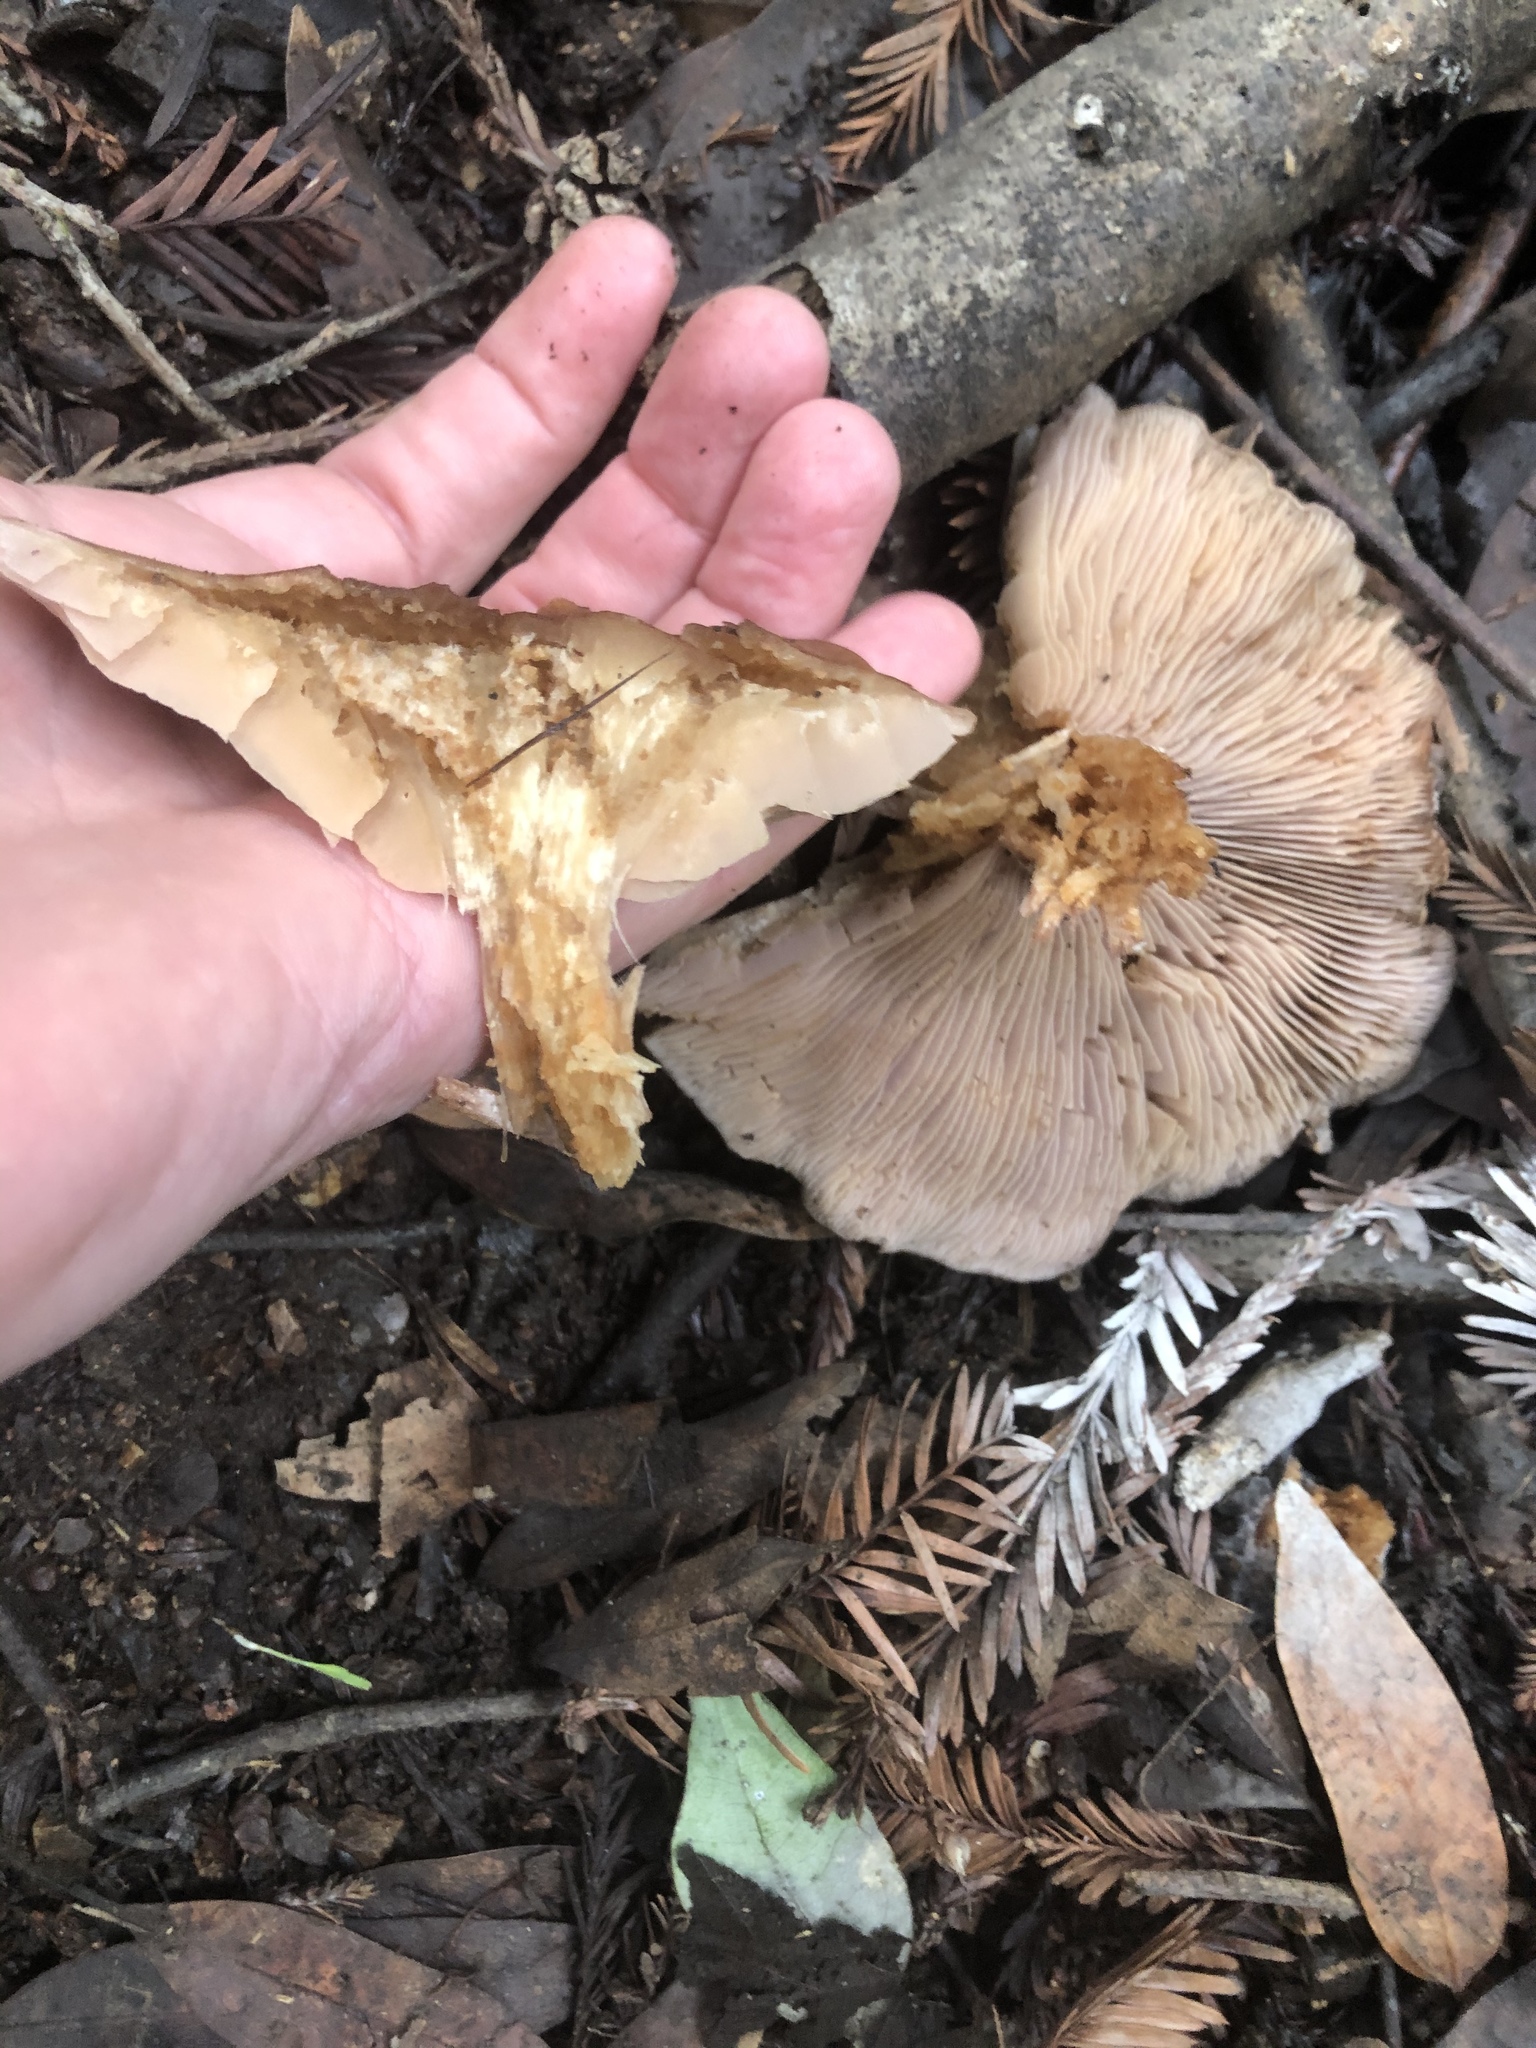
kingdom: Fungi
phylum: Basidiomycota
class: Agaricomycetes
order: Agaricales
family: Tricholomataceae
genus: Collybia
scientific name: Collybia
